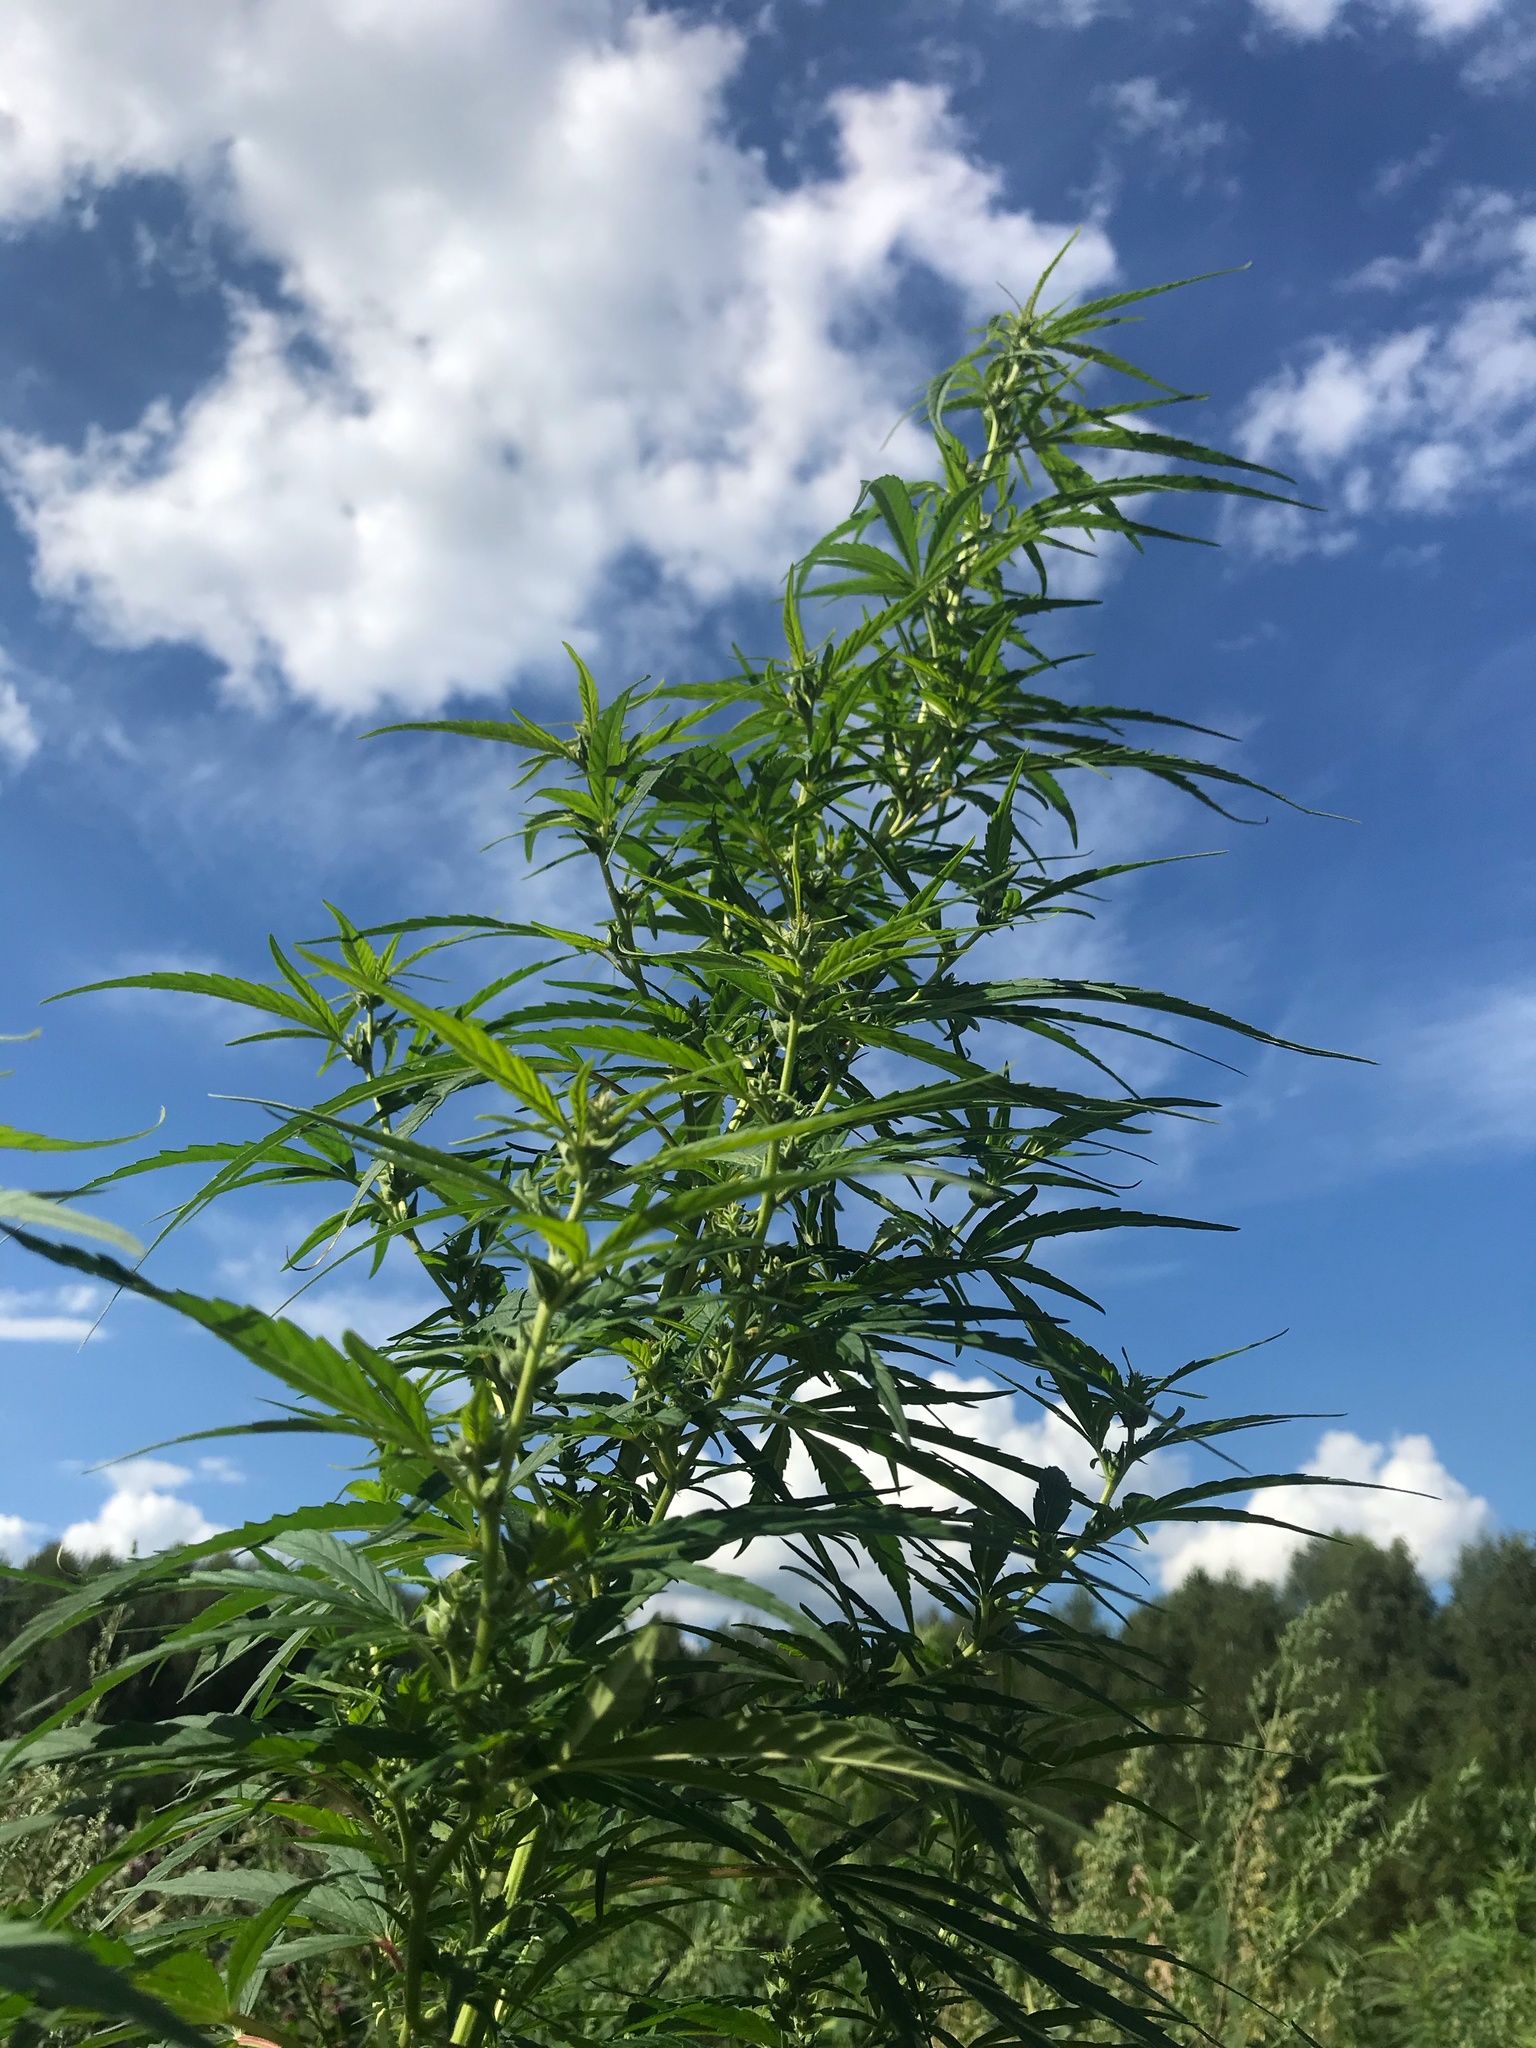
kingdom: Plantae
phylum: Tracheophyta
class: Magnoliopsida
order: Rosales
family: Cannabaceae
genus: Cannabis
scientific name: Cannabis sativa
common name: Hemp
